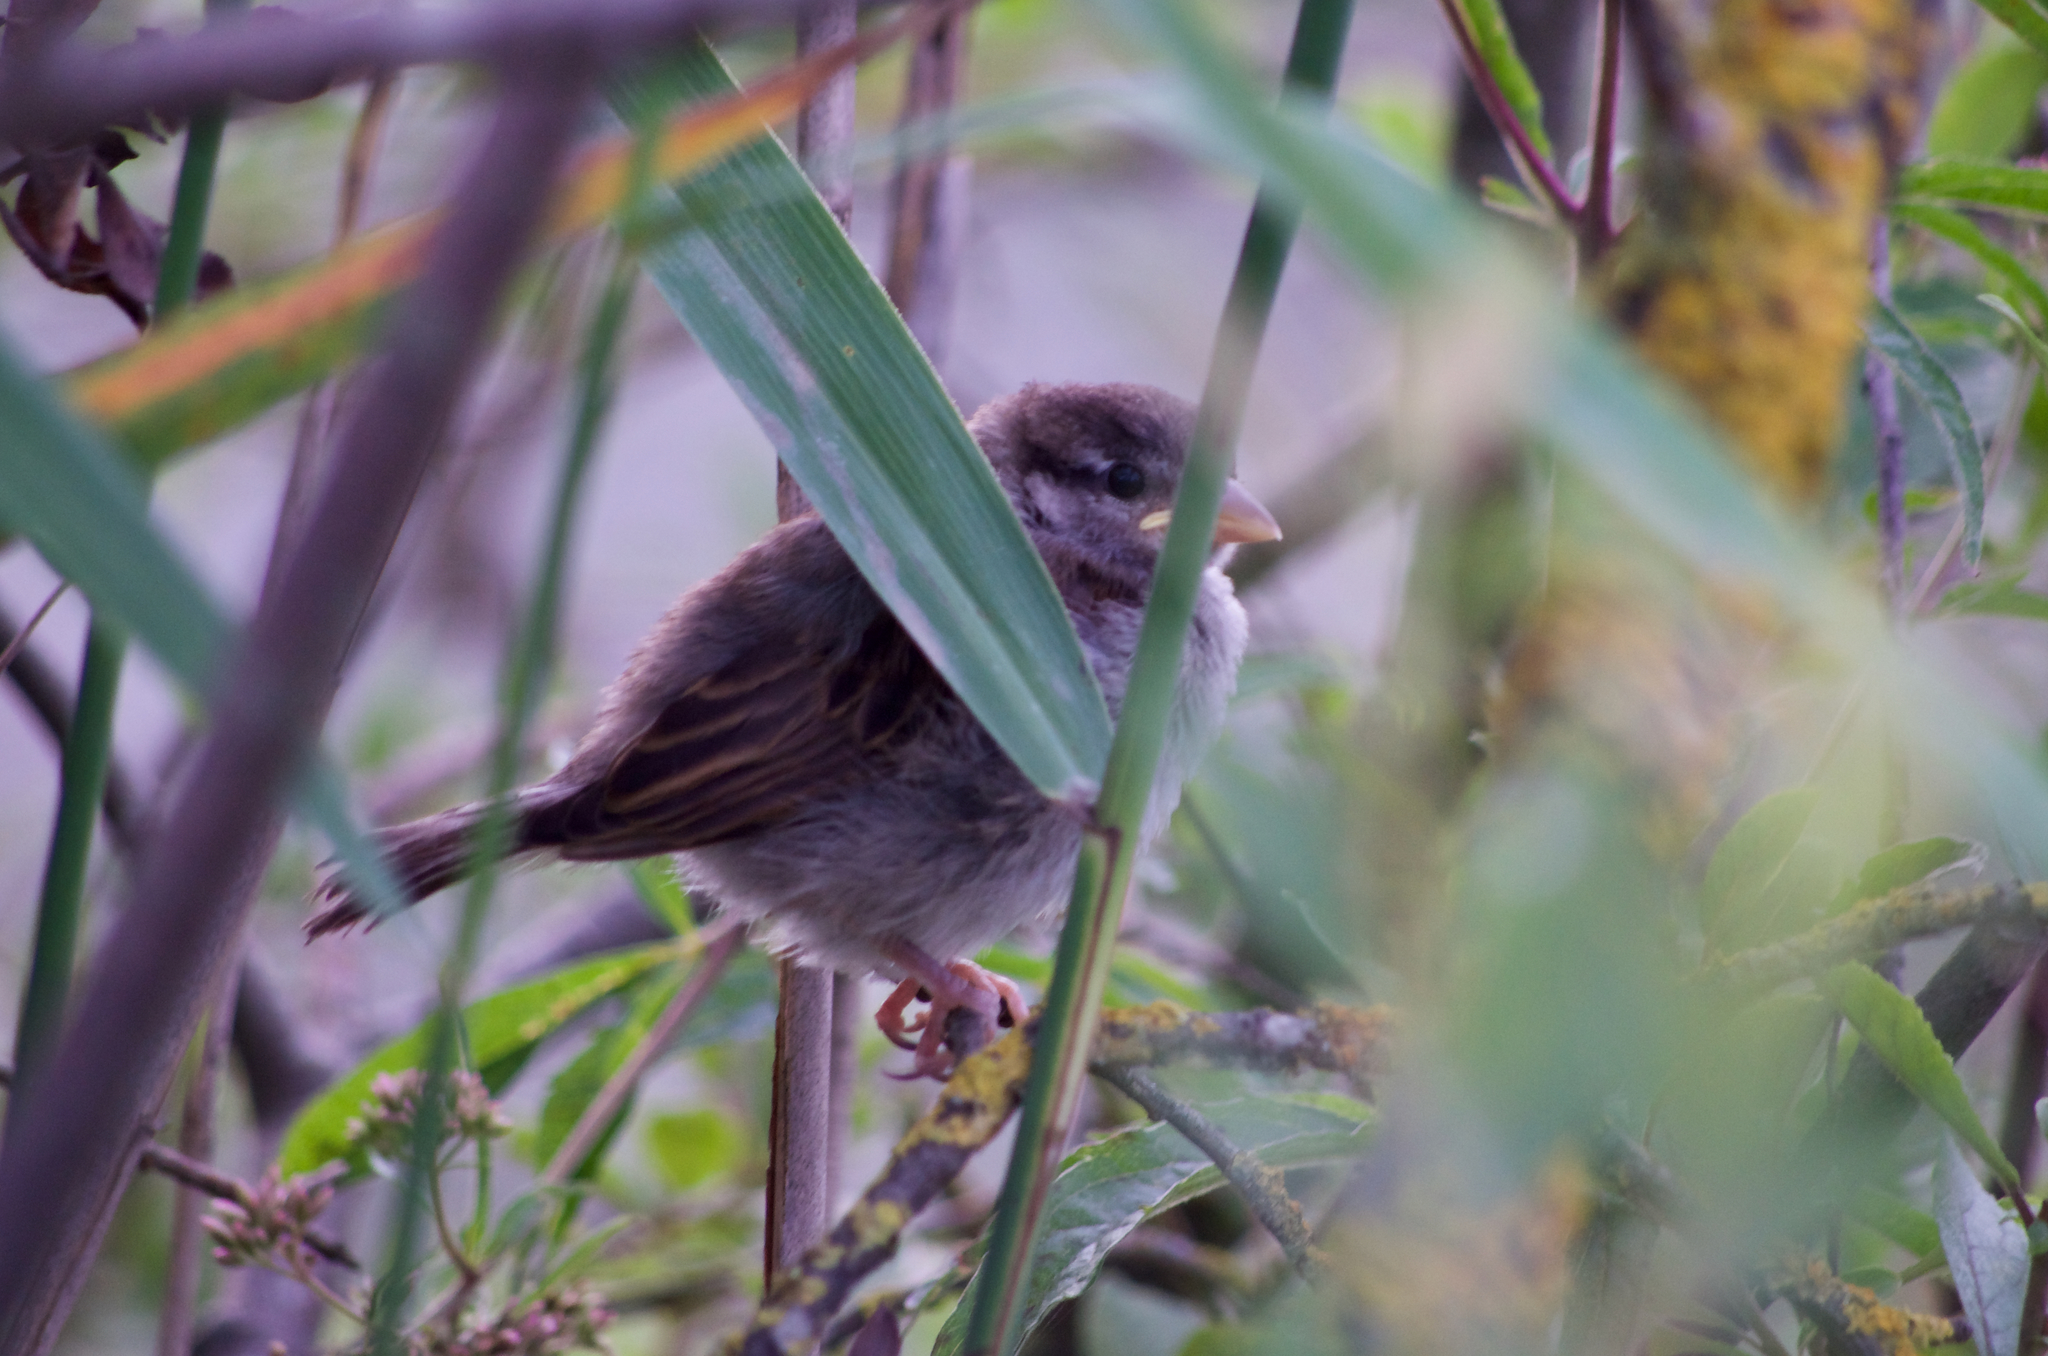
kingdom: Animalia
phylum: Chordata
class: Aves
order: Passeriformes
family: Passeridae
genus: Passer
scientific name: Passer domesticus
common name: House sparrow
